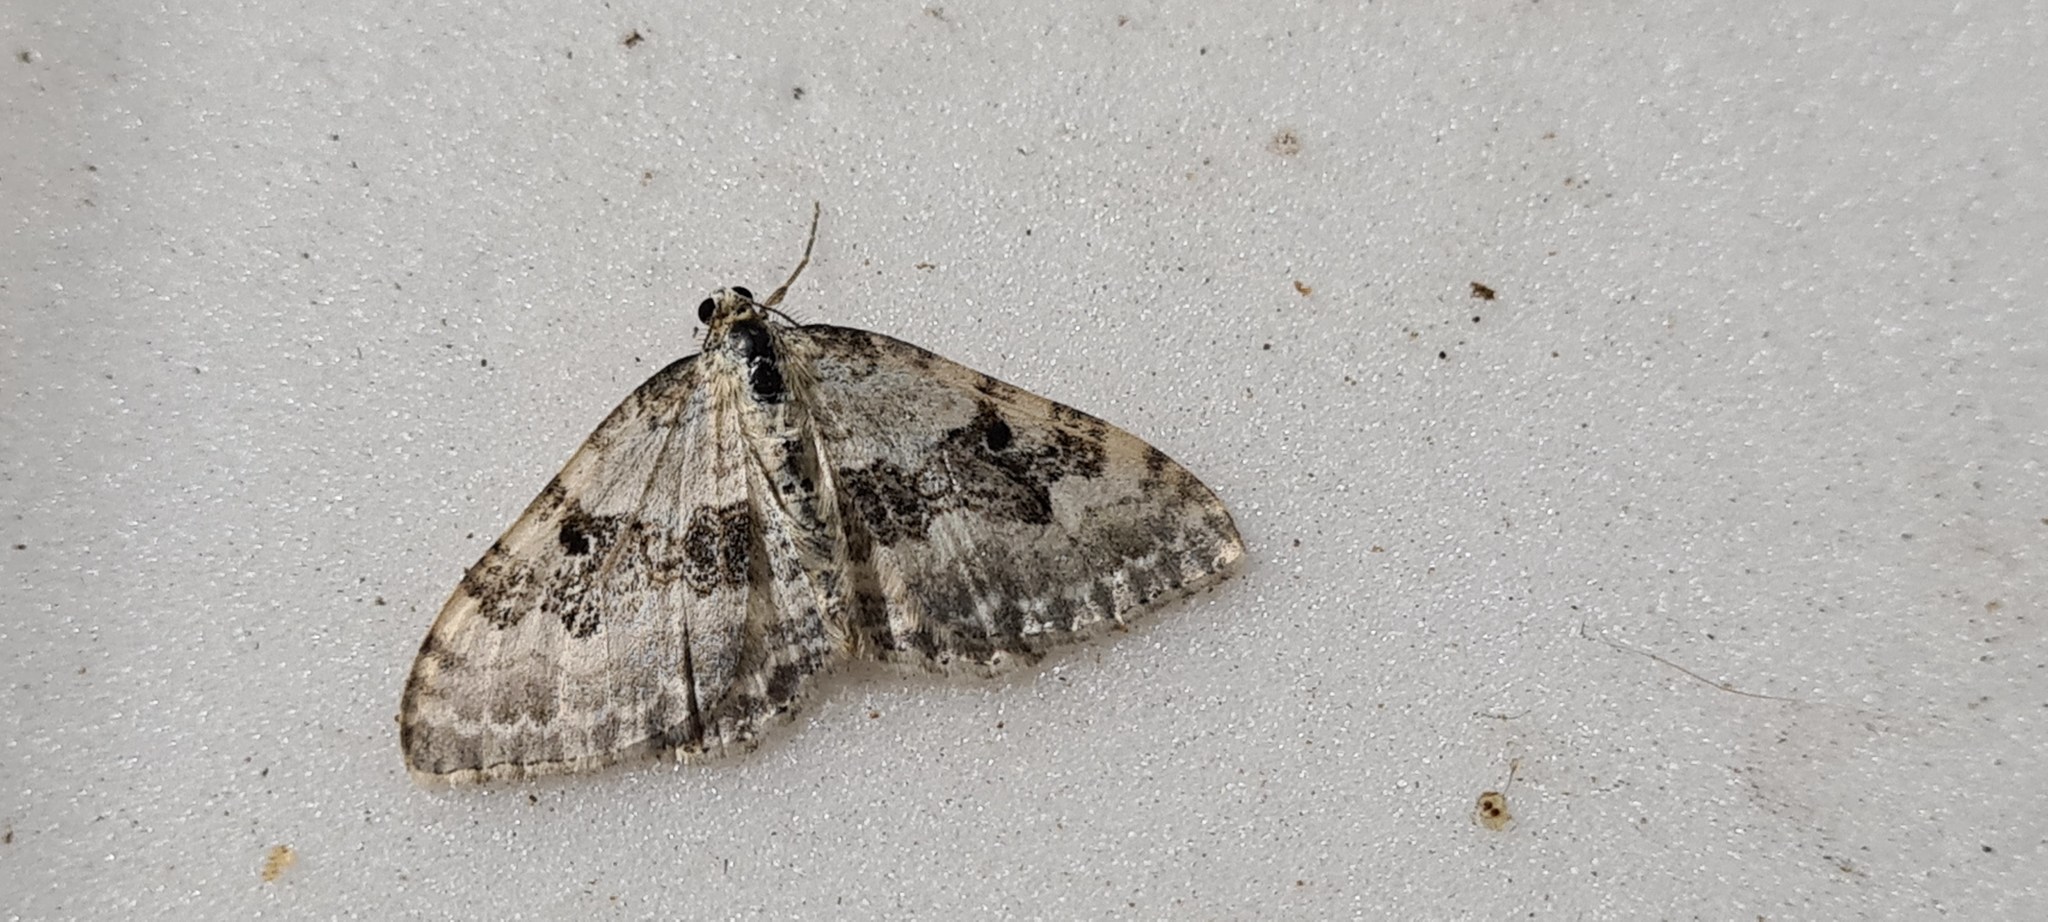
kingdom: Animalia
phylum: Arthropoda
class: Insecta
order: Lepidoptera
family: Geometridae
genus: Xanthorhoe
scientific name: Xanthorhoe montanata
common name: Silver-ground carpet
